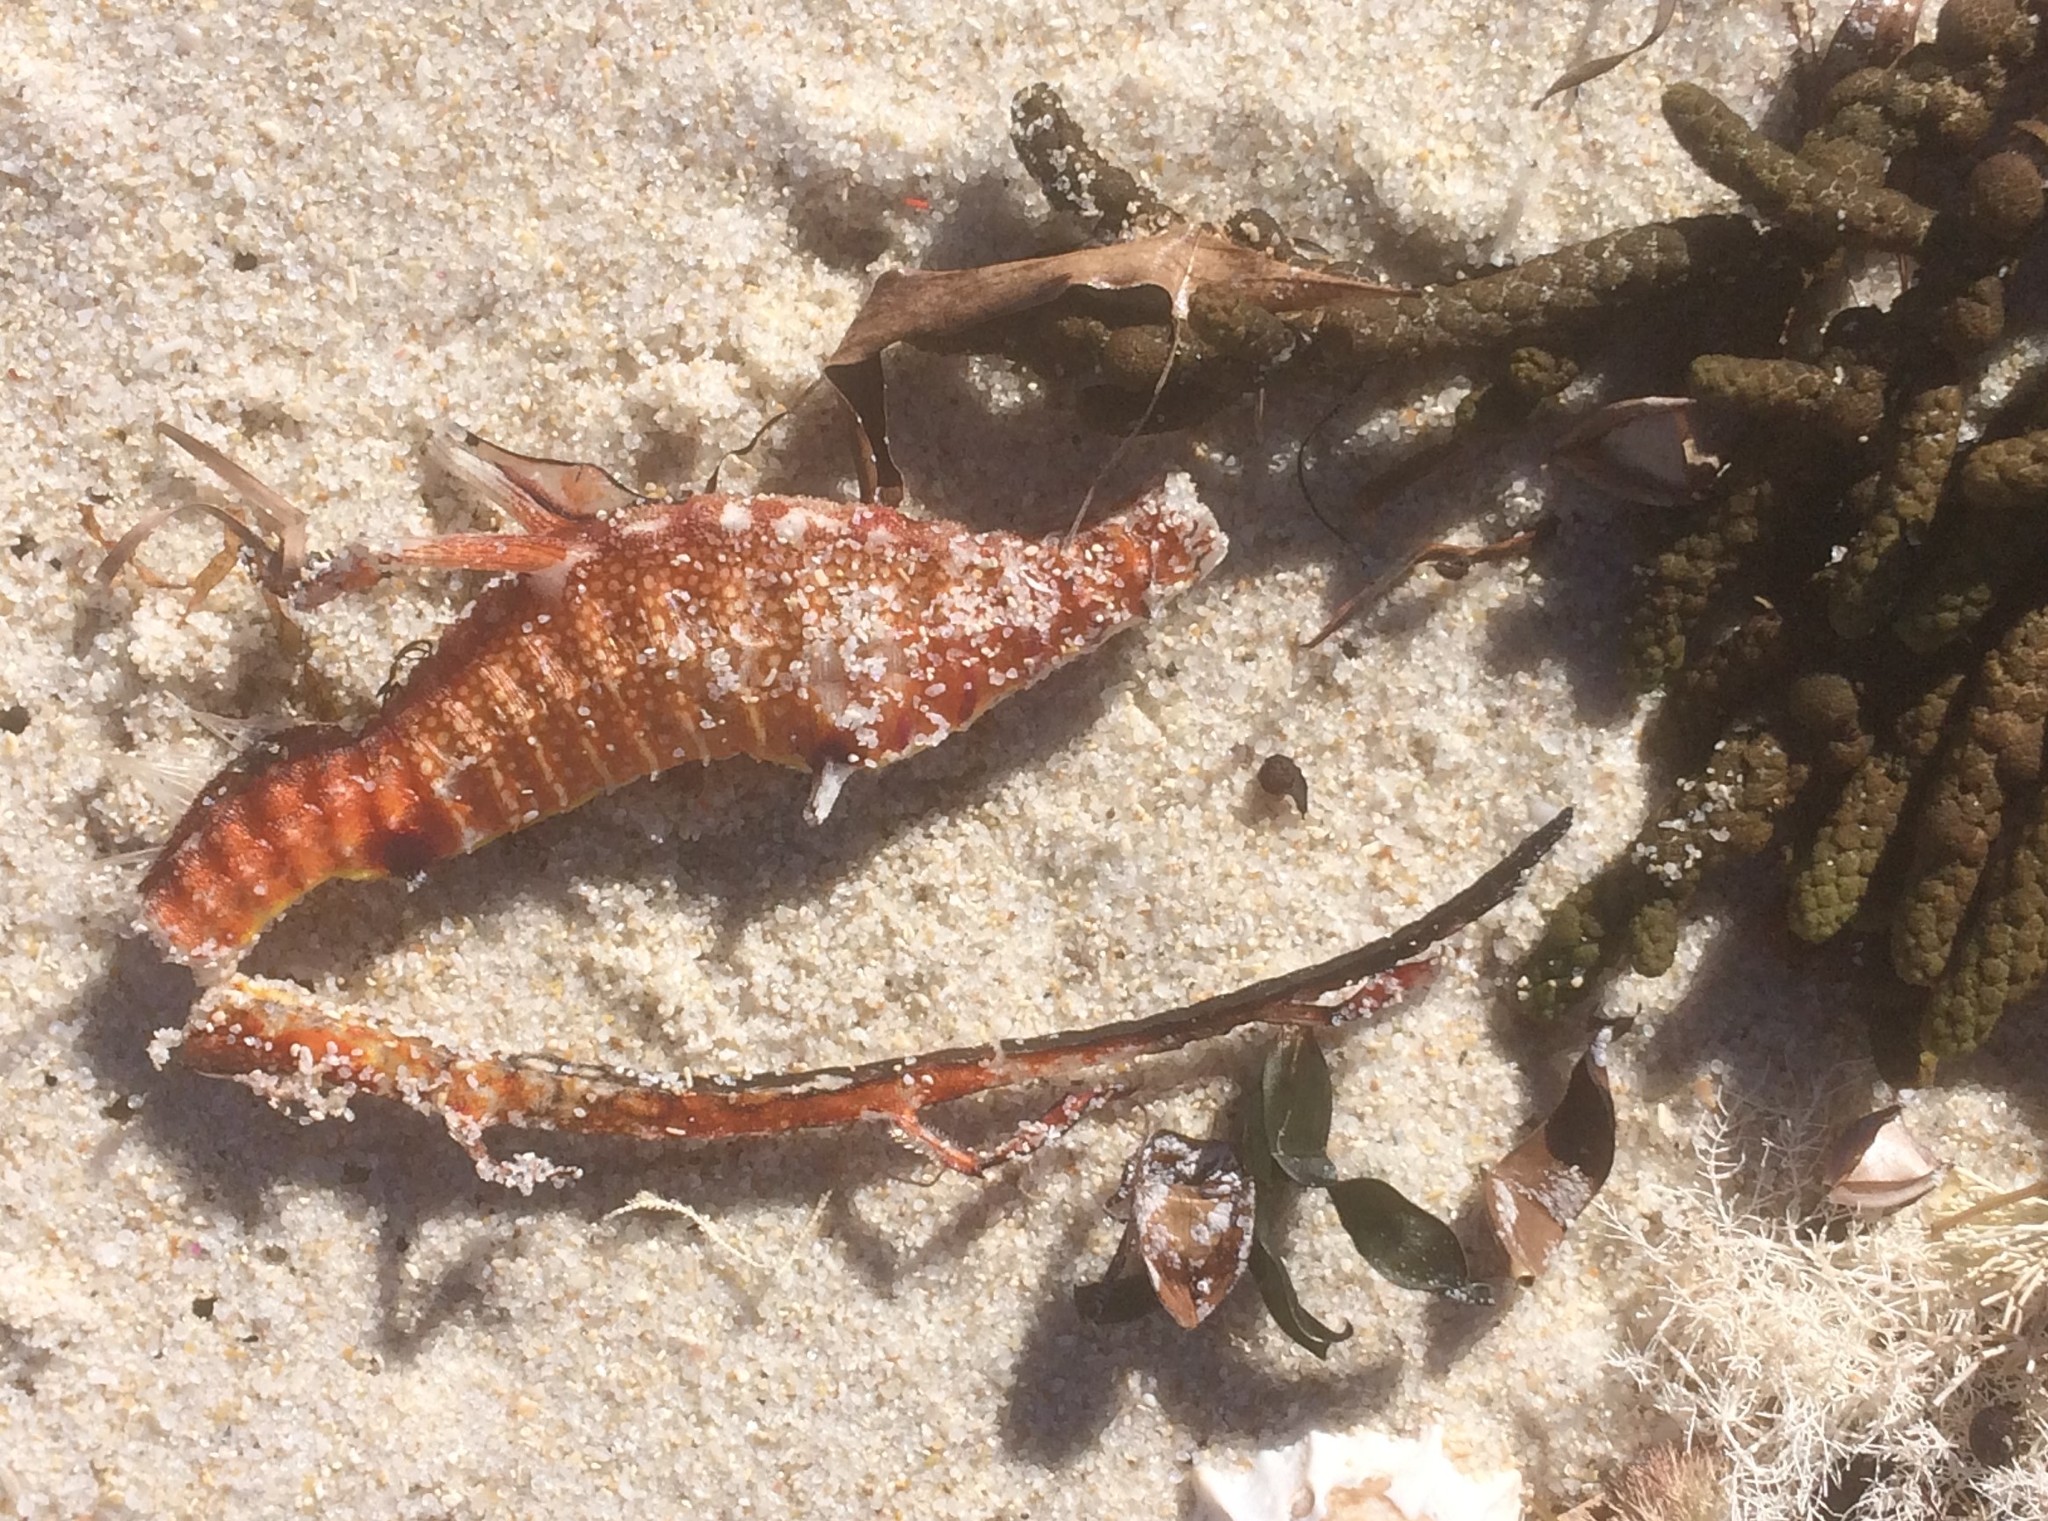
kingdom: Animalia
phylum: Chordata
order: Syngnathiformes
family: Syngnathidae
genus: Phyllopteryx
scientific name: Phyllopteryx taeniolatus
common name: Common seadragon
